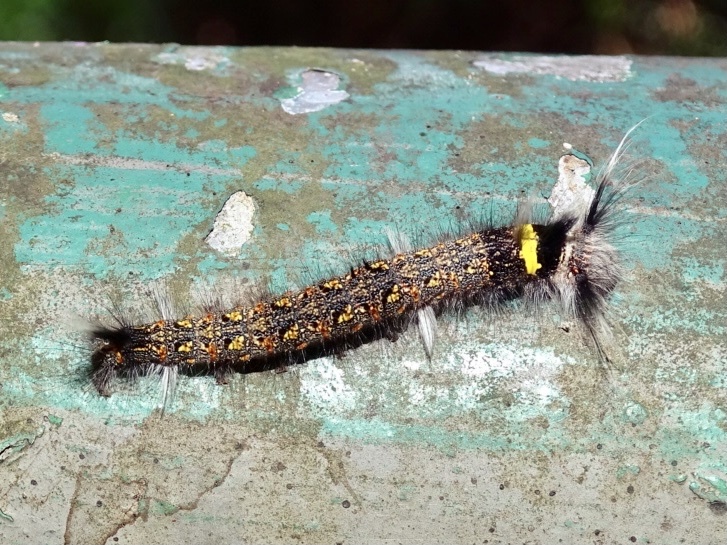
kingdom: Animalia
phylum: Arthropoda
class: Insecta
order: Lepidoptera
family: Lasiocampidae
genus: Euthrix
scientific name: Euthrix isocyma
